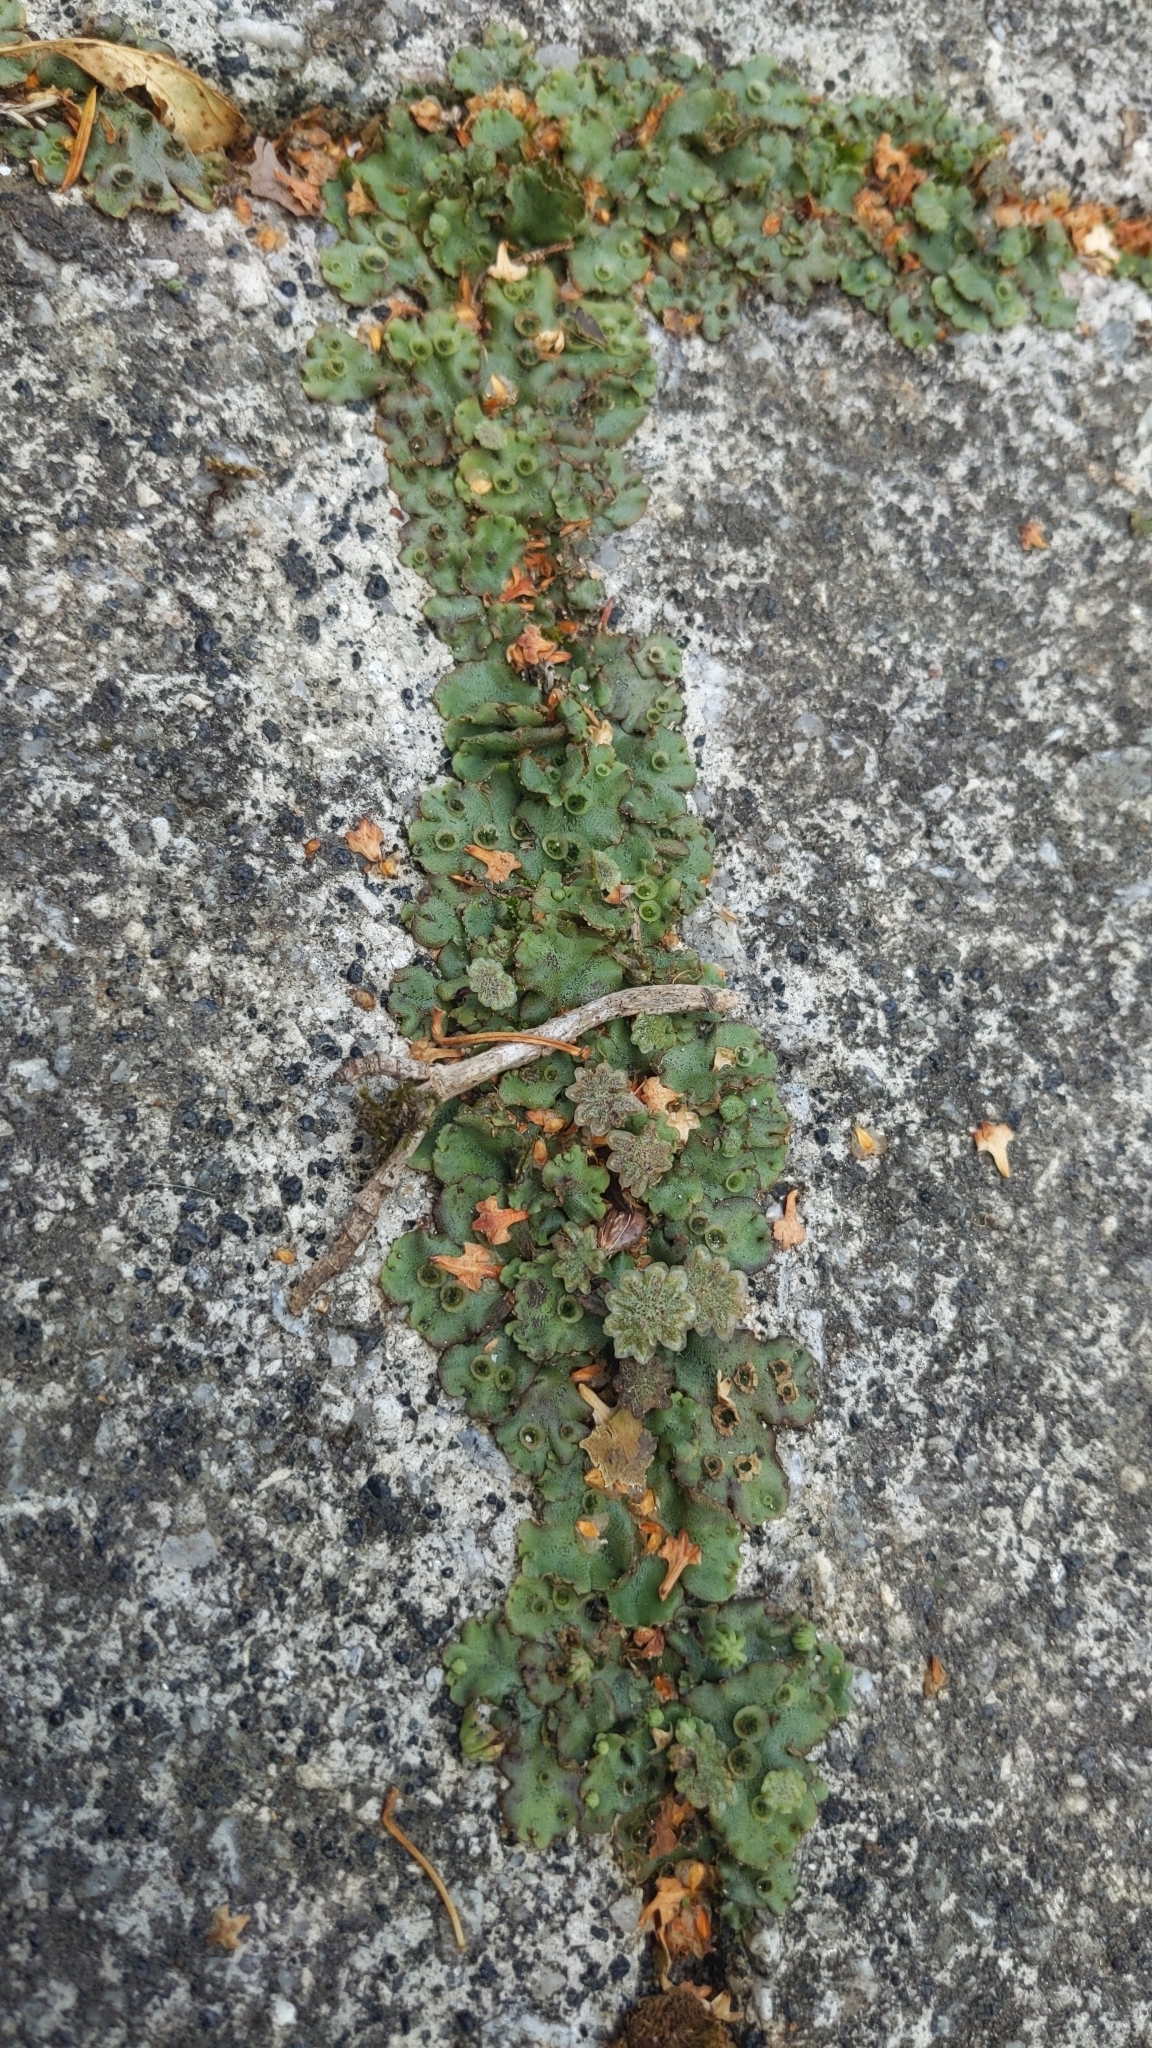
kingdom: Plantae
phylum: Marchantiophyta
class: Marchantiopsida
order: Marchantiales
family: Marchantiaceae
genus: Marchantia
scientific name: Marchantia polymorpha
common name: Common liverwort
